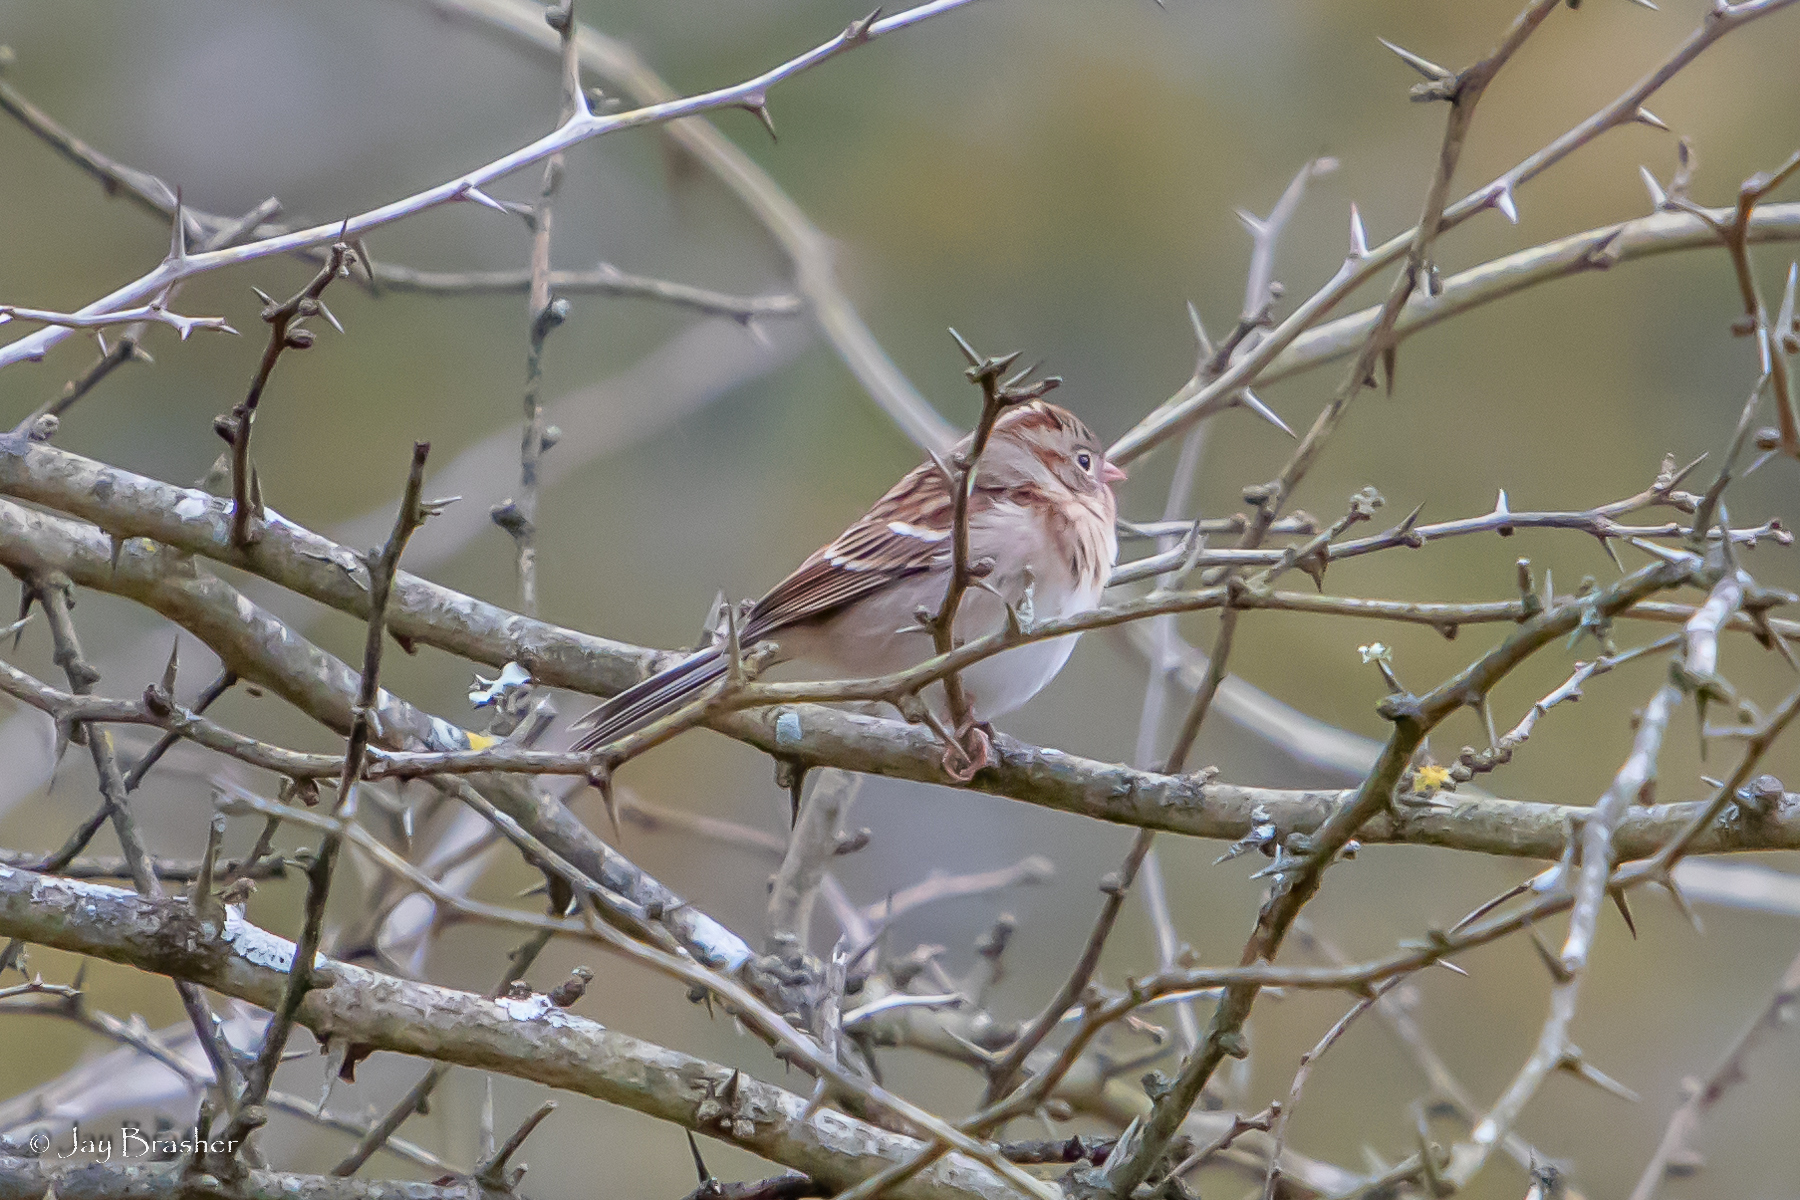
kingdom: Animalia
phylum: Chordata
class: Aves
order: Passeriformes
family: Passerellidae
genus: Spizella
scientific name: Spizella pusilla
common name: Field sparrow
